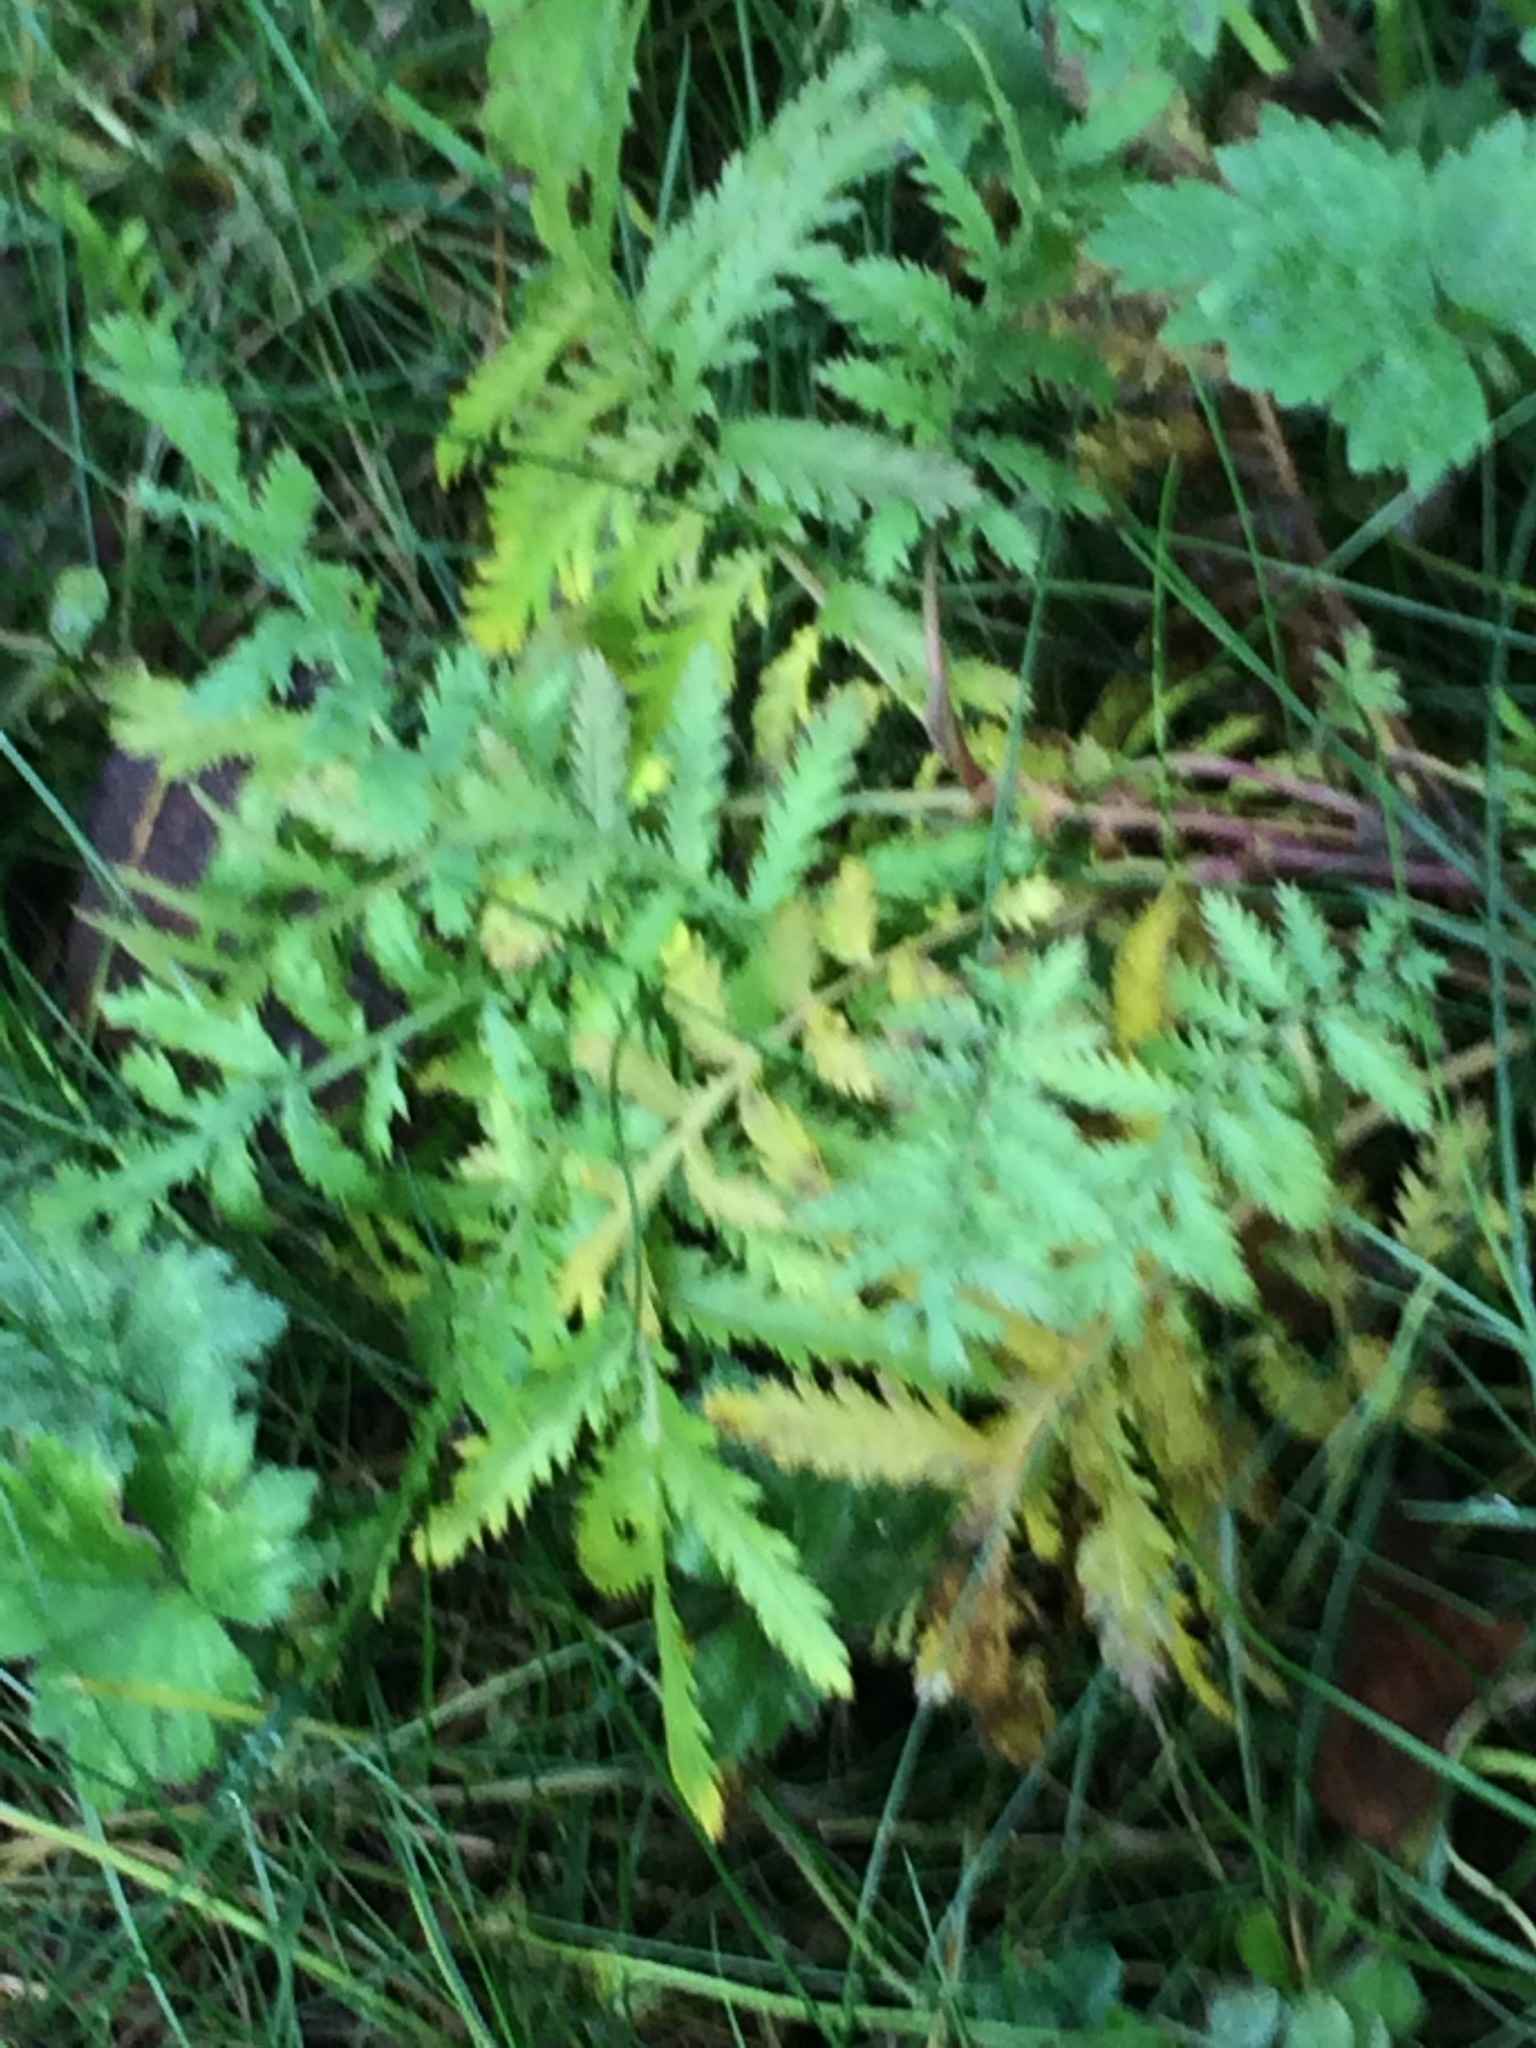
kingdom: Plantae
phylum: Tracheophyta
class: Magnoliopsida
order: Asterales
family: Asteraceae
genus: Tanacetum
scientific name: Tanacetum vulgare
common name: Common tansy
